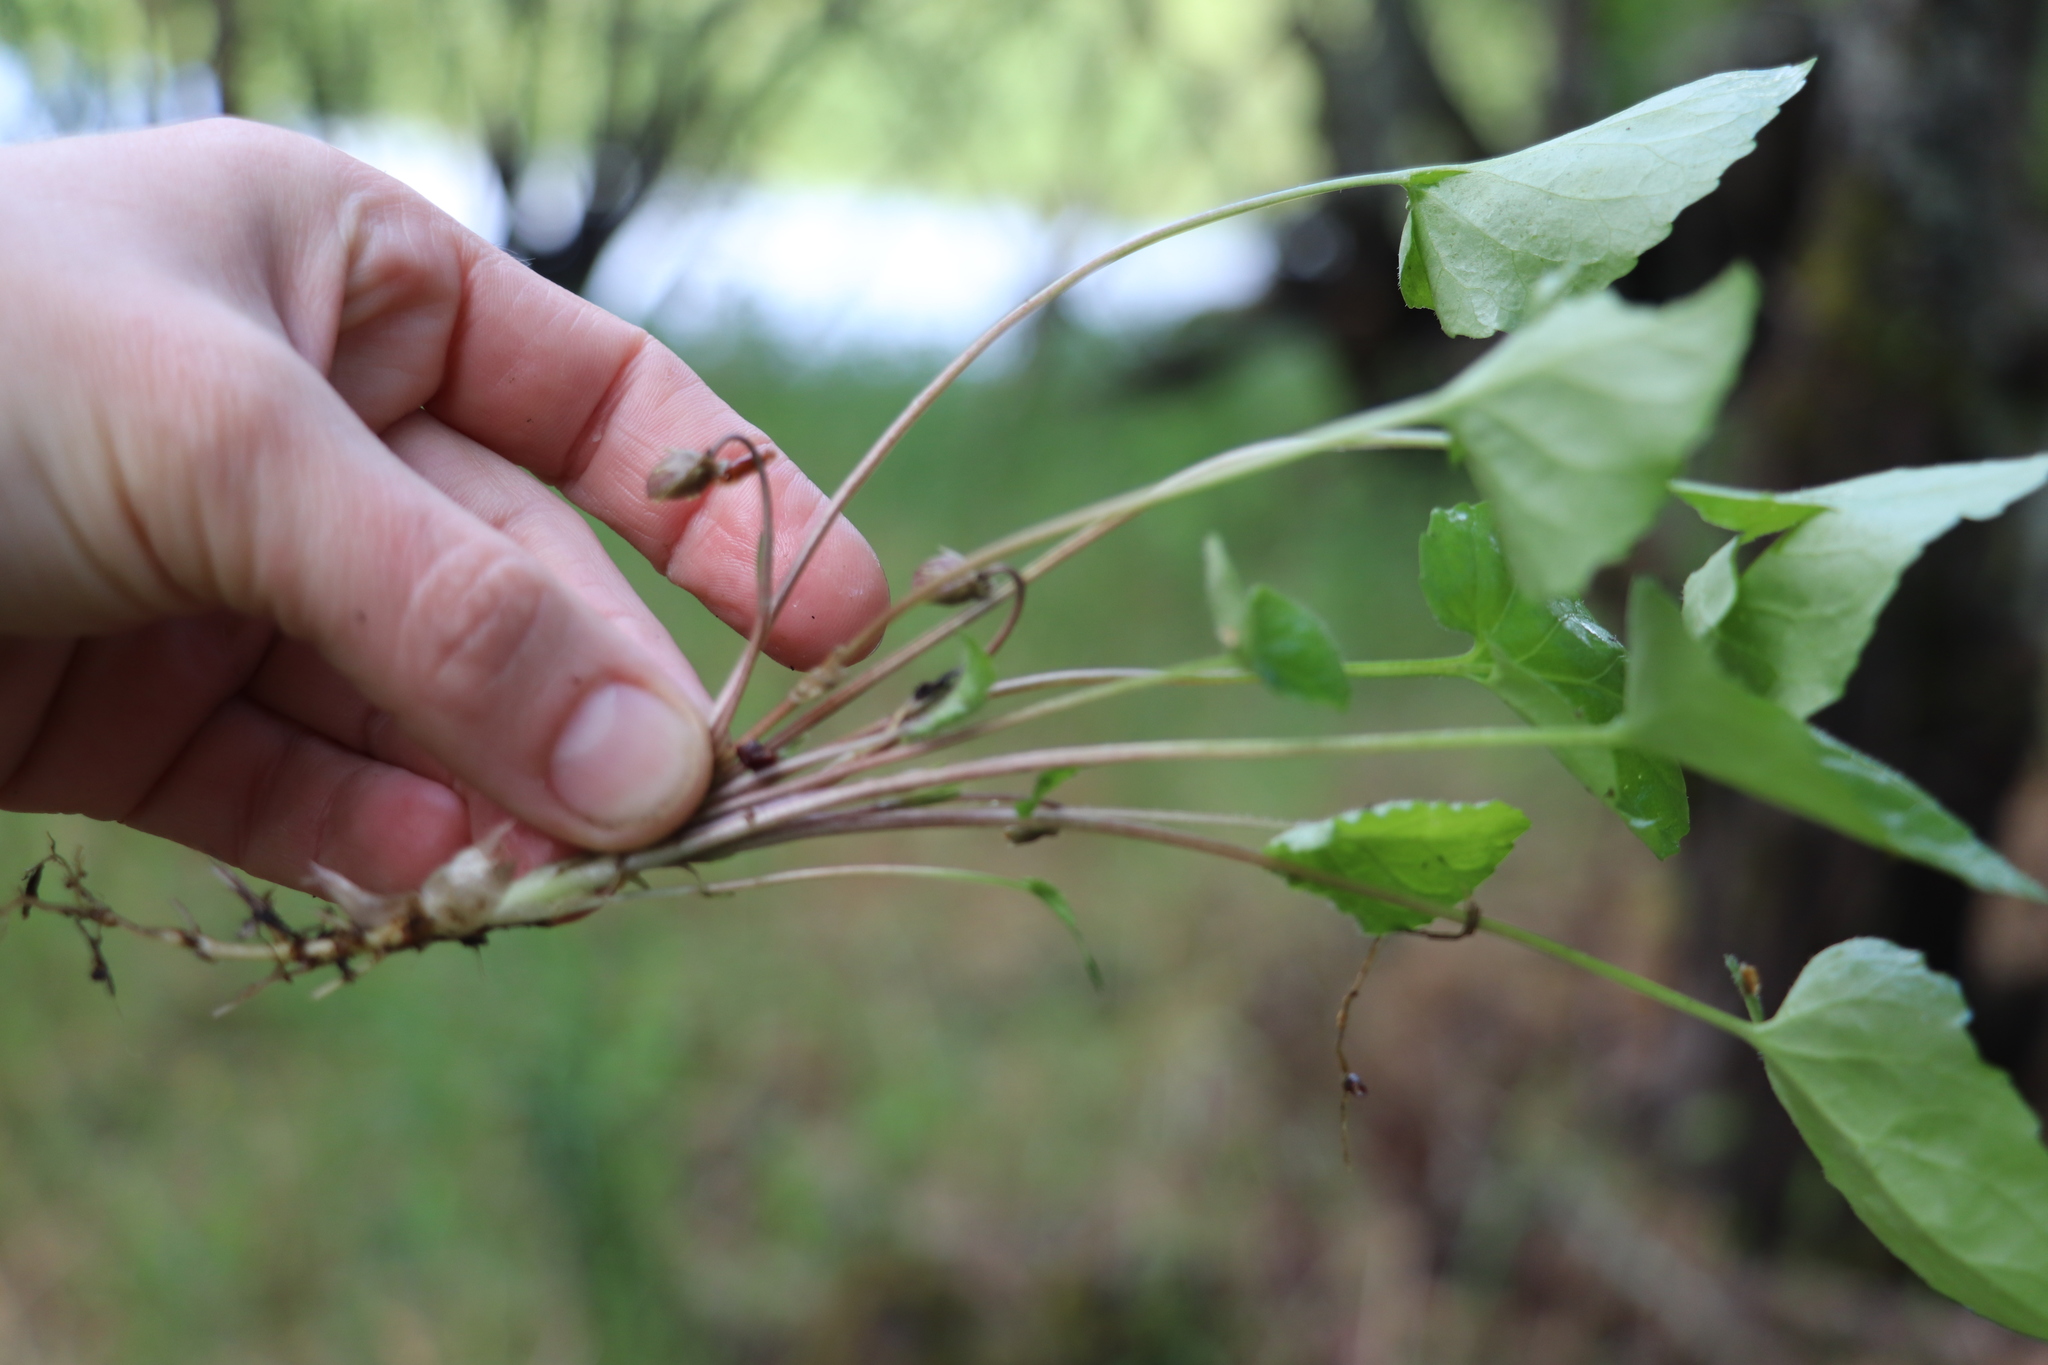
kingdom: Plantae
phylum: Tracheophyta
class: Magnoliopsida
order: Malpighiales
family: Violaceae
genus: Viola
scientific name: Viola selkirkii
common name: Selkirk's violet
